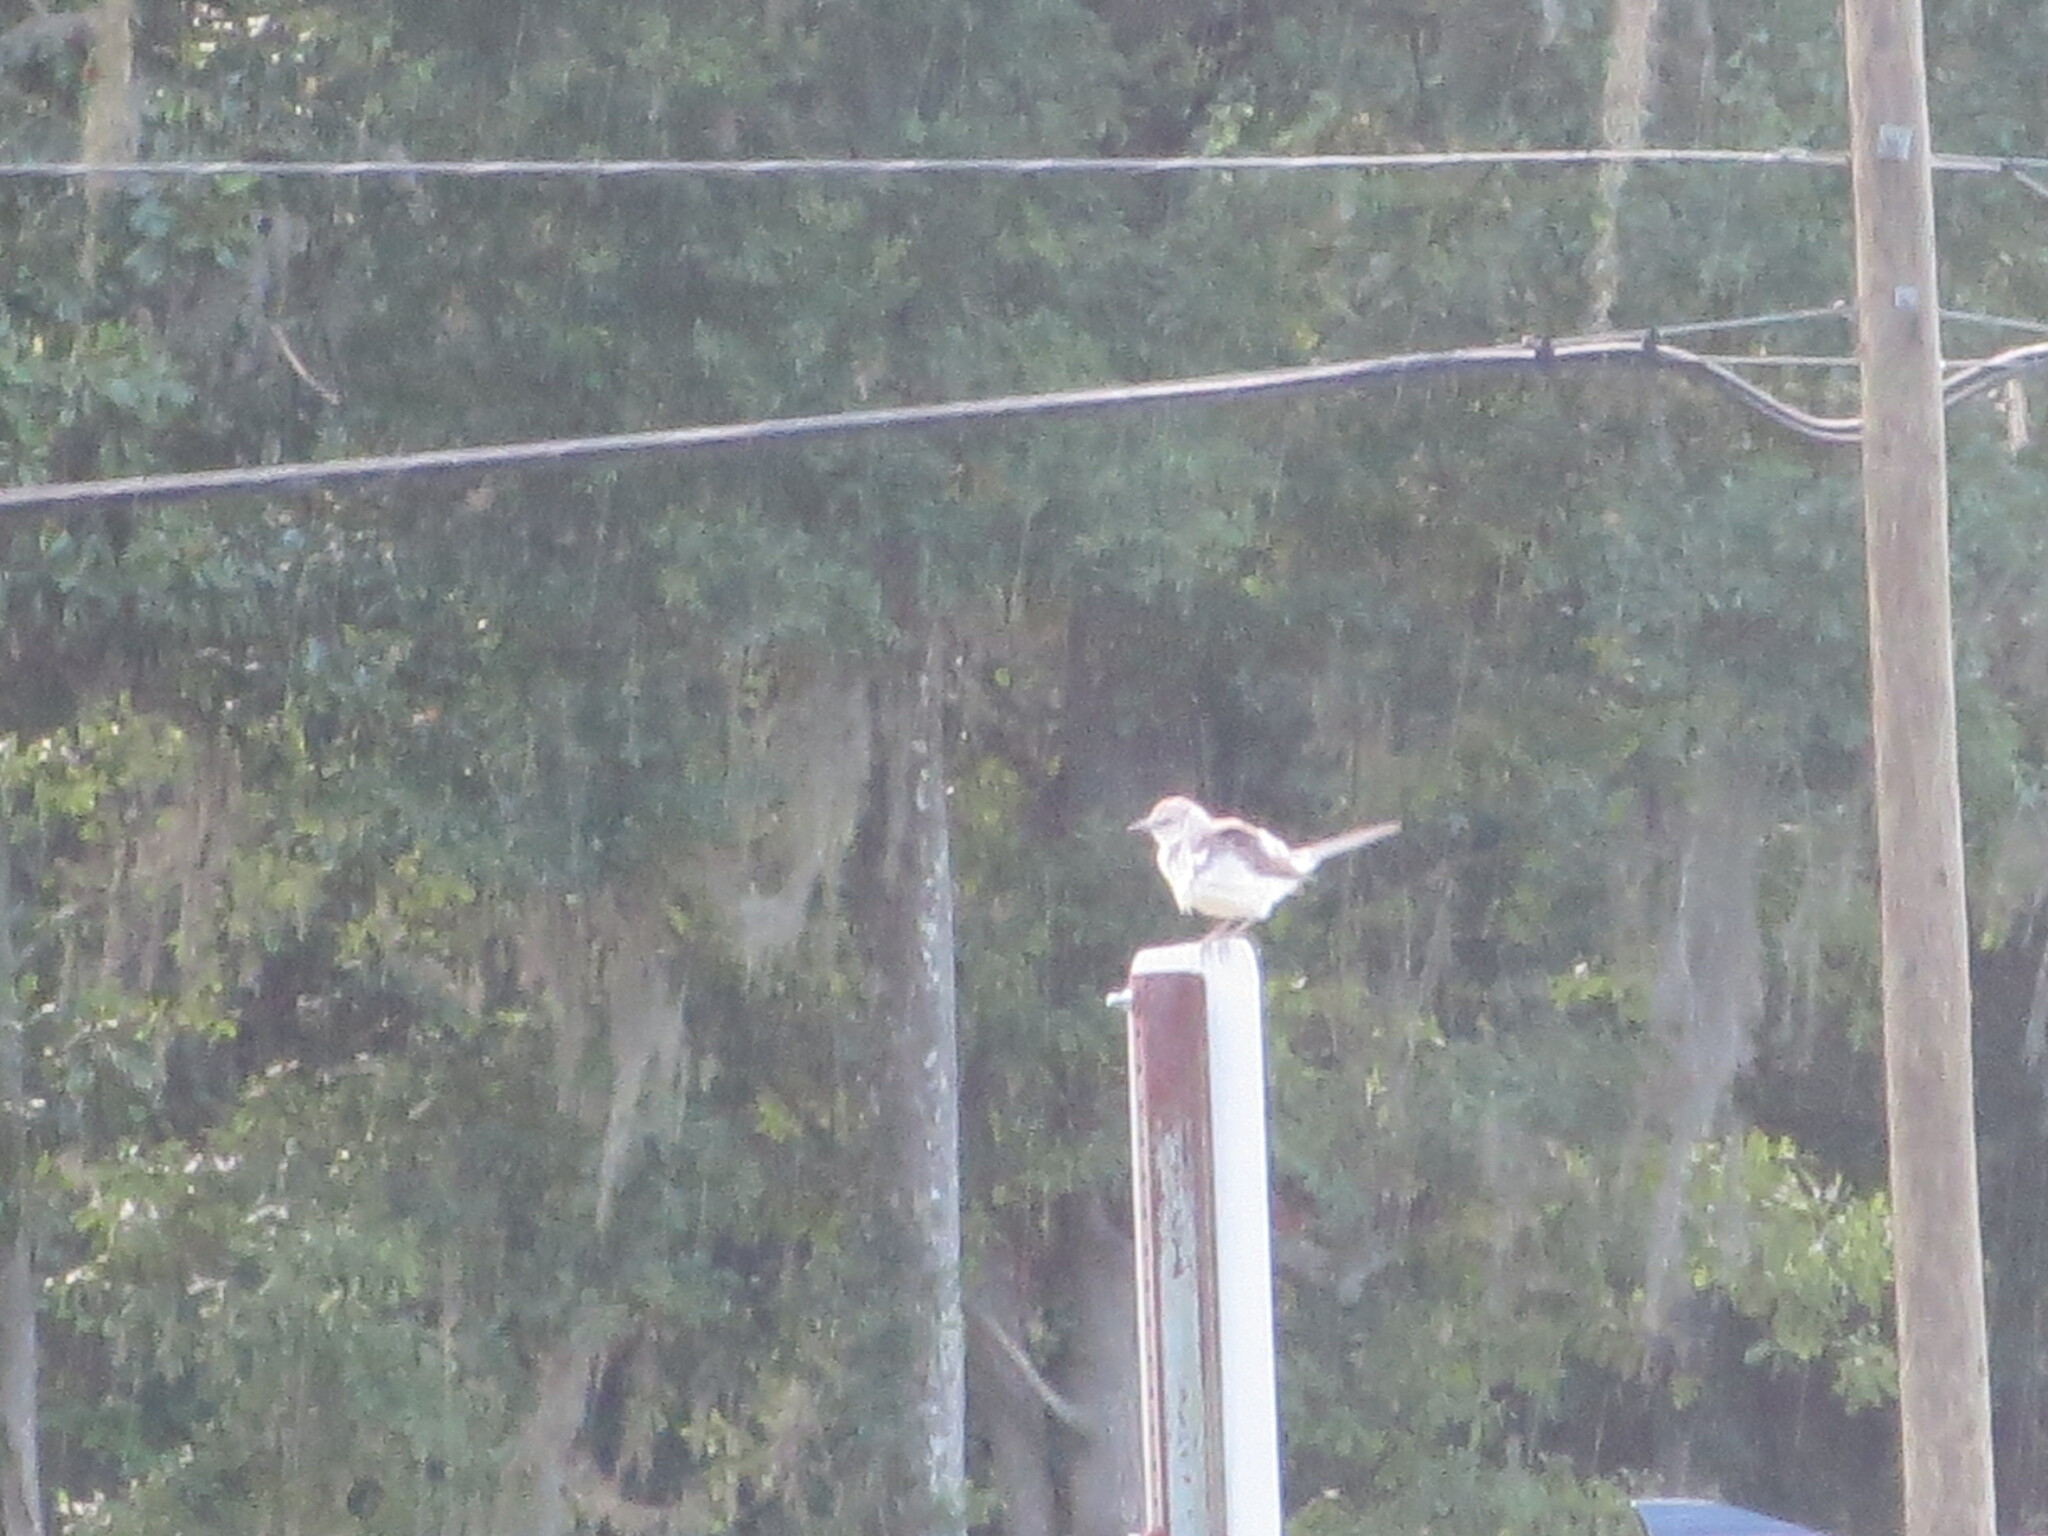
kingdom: Animalia
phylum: Chordata
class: Aves
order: Passeriformes
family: Mimidae
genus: Mimus
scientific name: Mimus polyglottos
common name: Northern mockingbird
